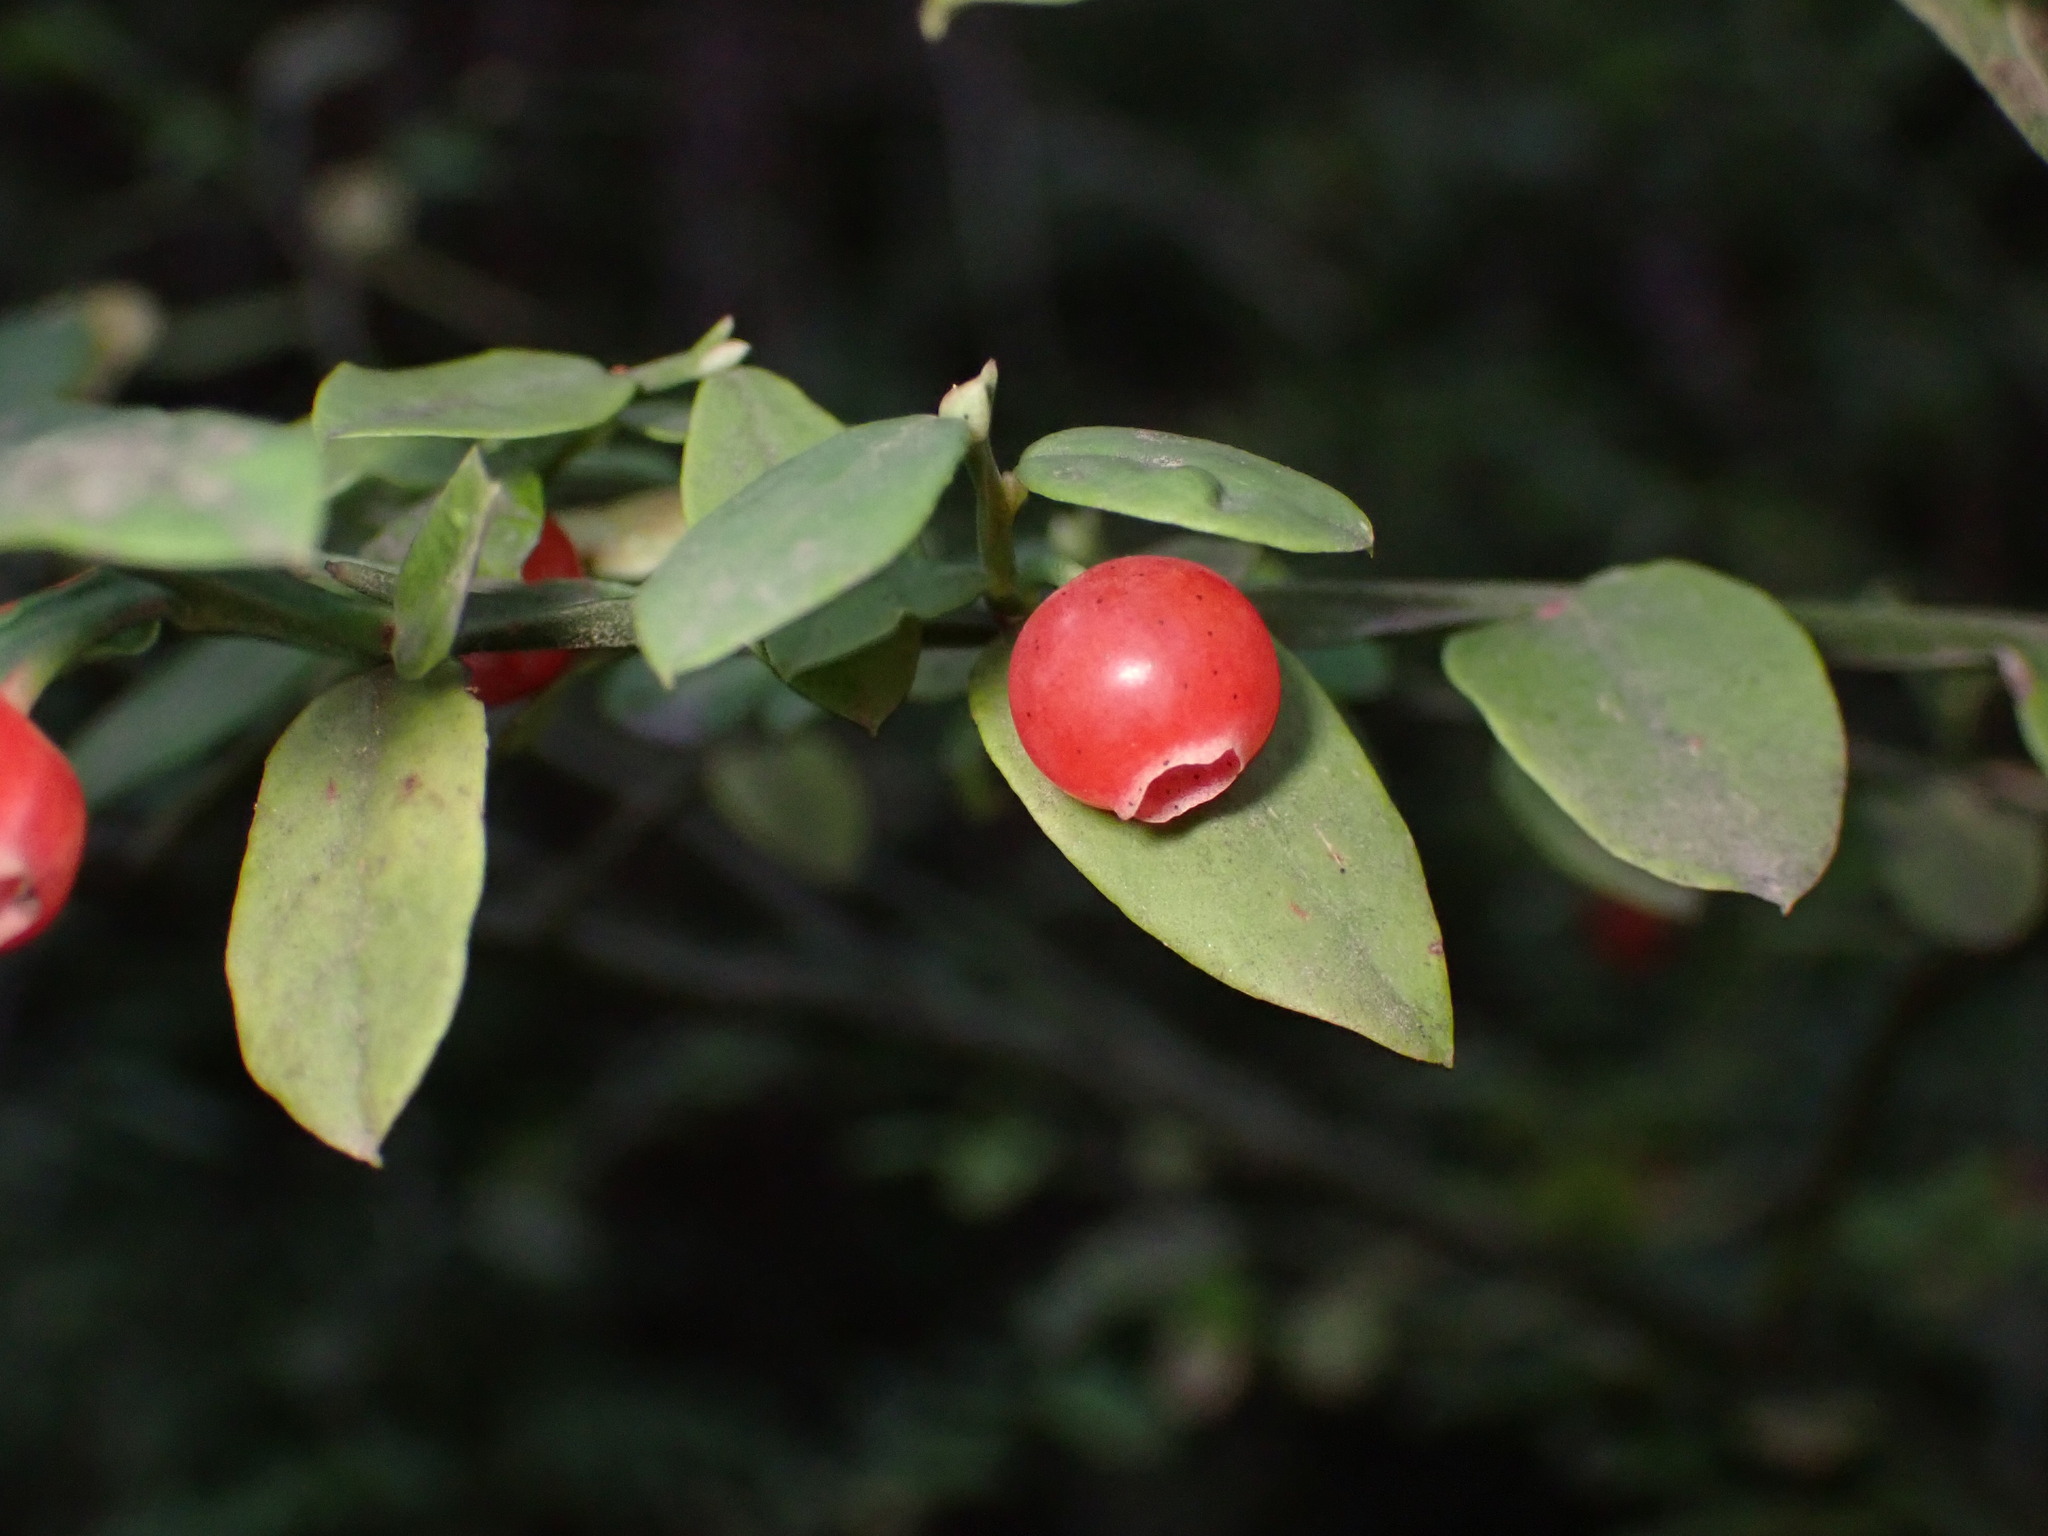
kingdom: Plantae
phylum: Tracheophyta
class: Magnoliopsida
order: Ericales
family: Ericaceae
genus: Vaccinium
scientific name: Vaccinium parvifolium
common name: Red-huckleberry
